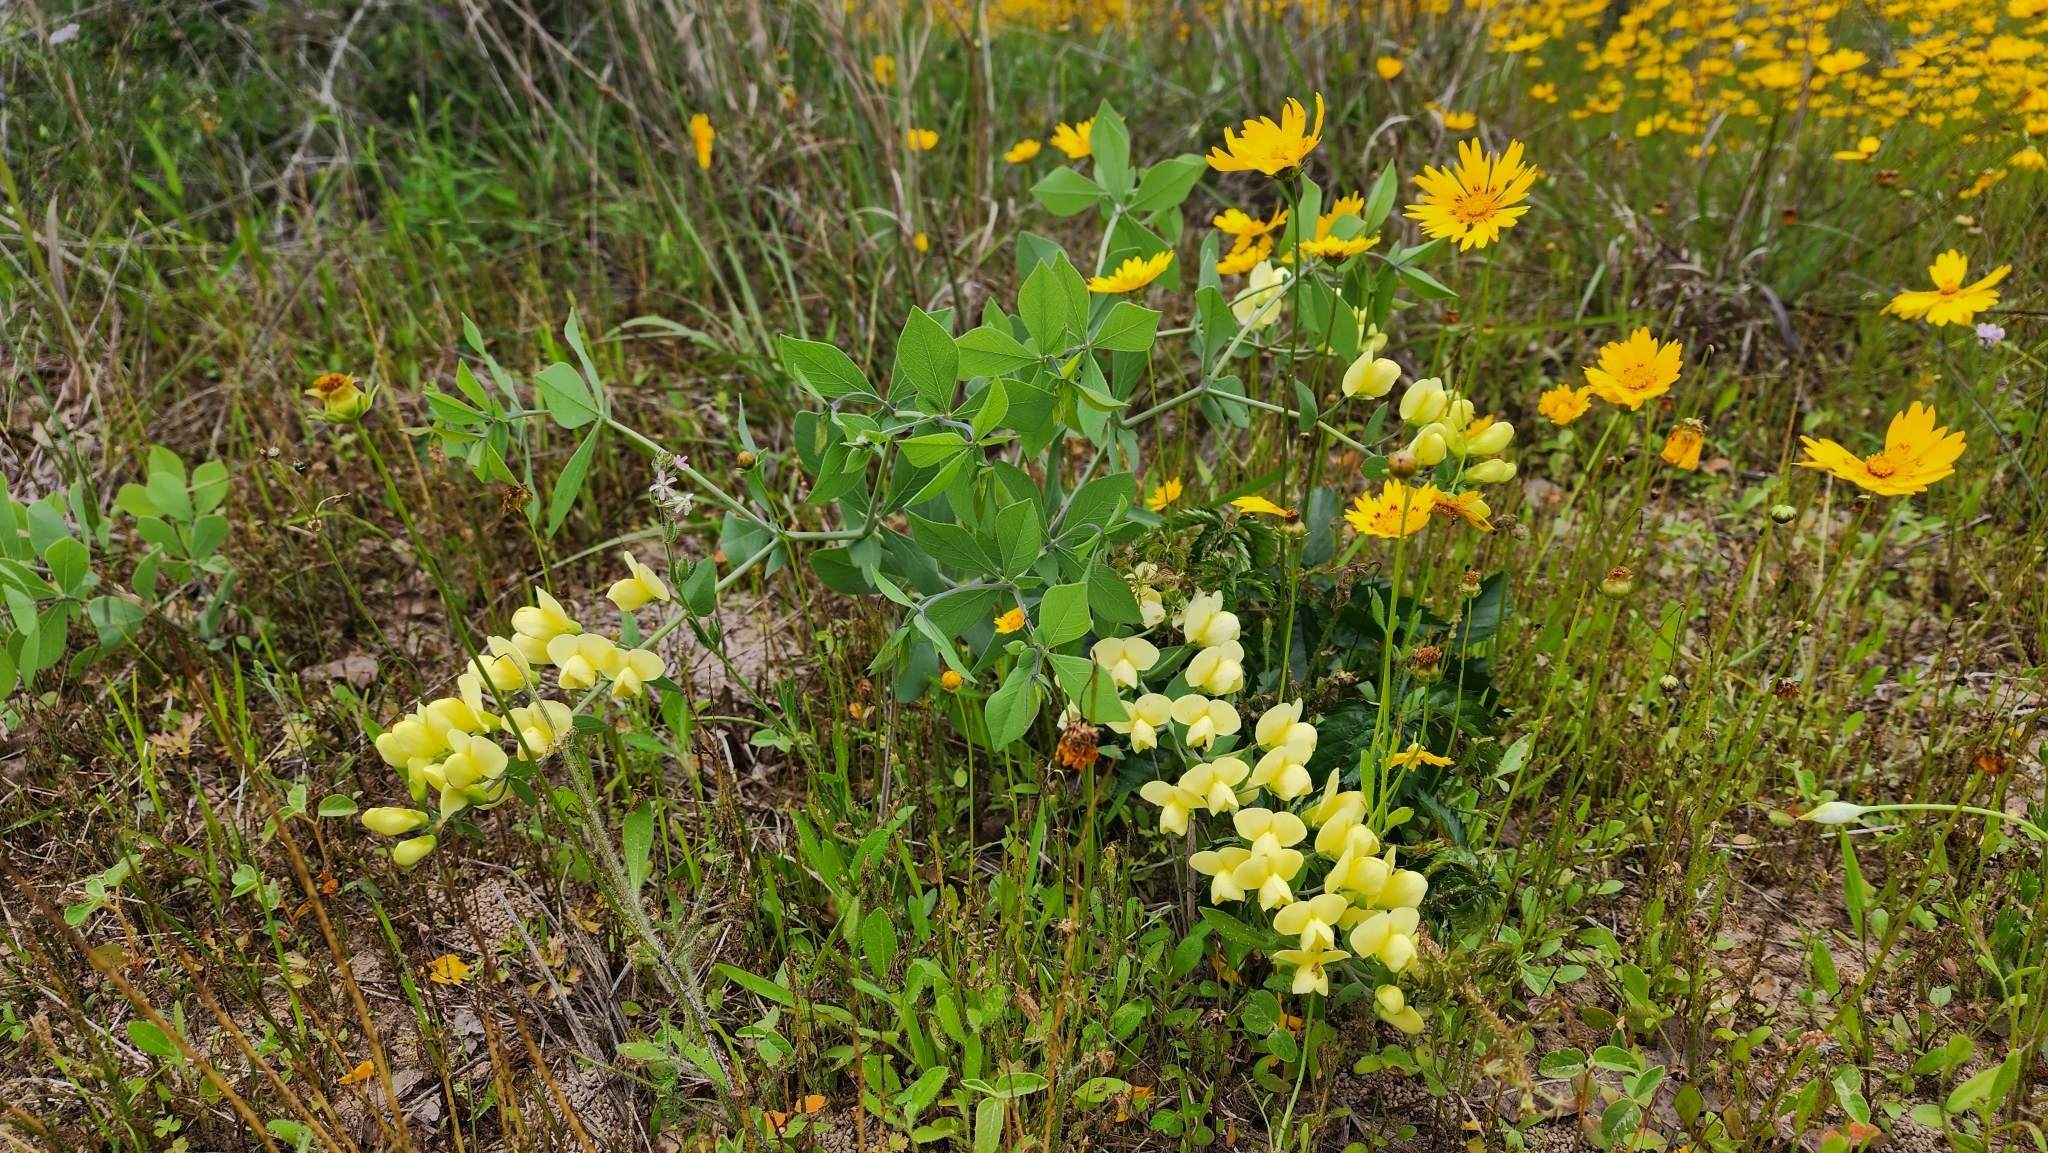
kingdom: Plantae
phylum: Tracheophyta
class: Magnoliopsida
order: Fabales
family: Fabaceae
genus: Baptisia
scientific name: Baptisia bracteata
